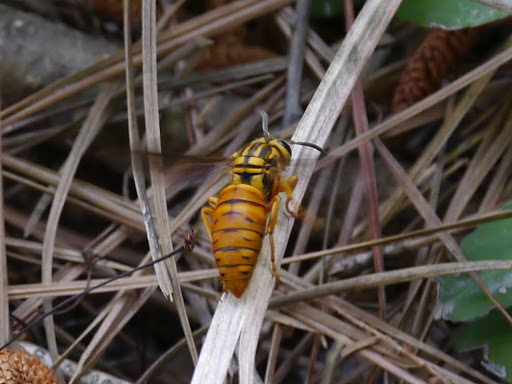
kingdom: Animalia
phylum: Arthropoda
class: Insecta
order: Hymenoptera
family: Vespidae
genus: Vespula
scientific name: Vespula squamosa
